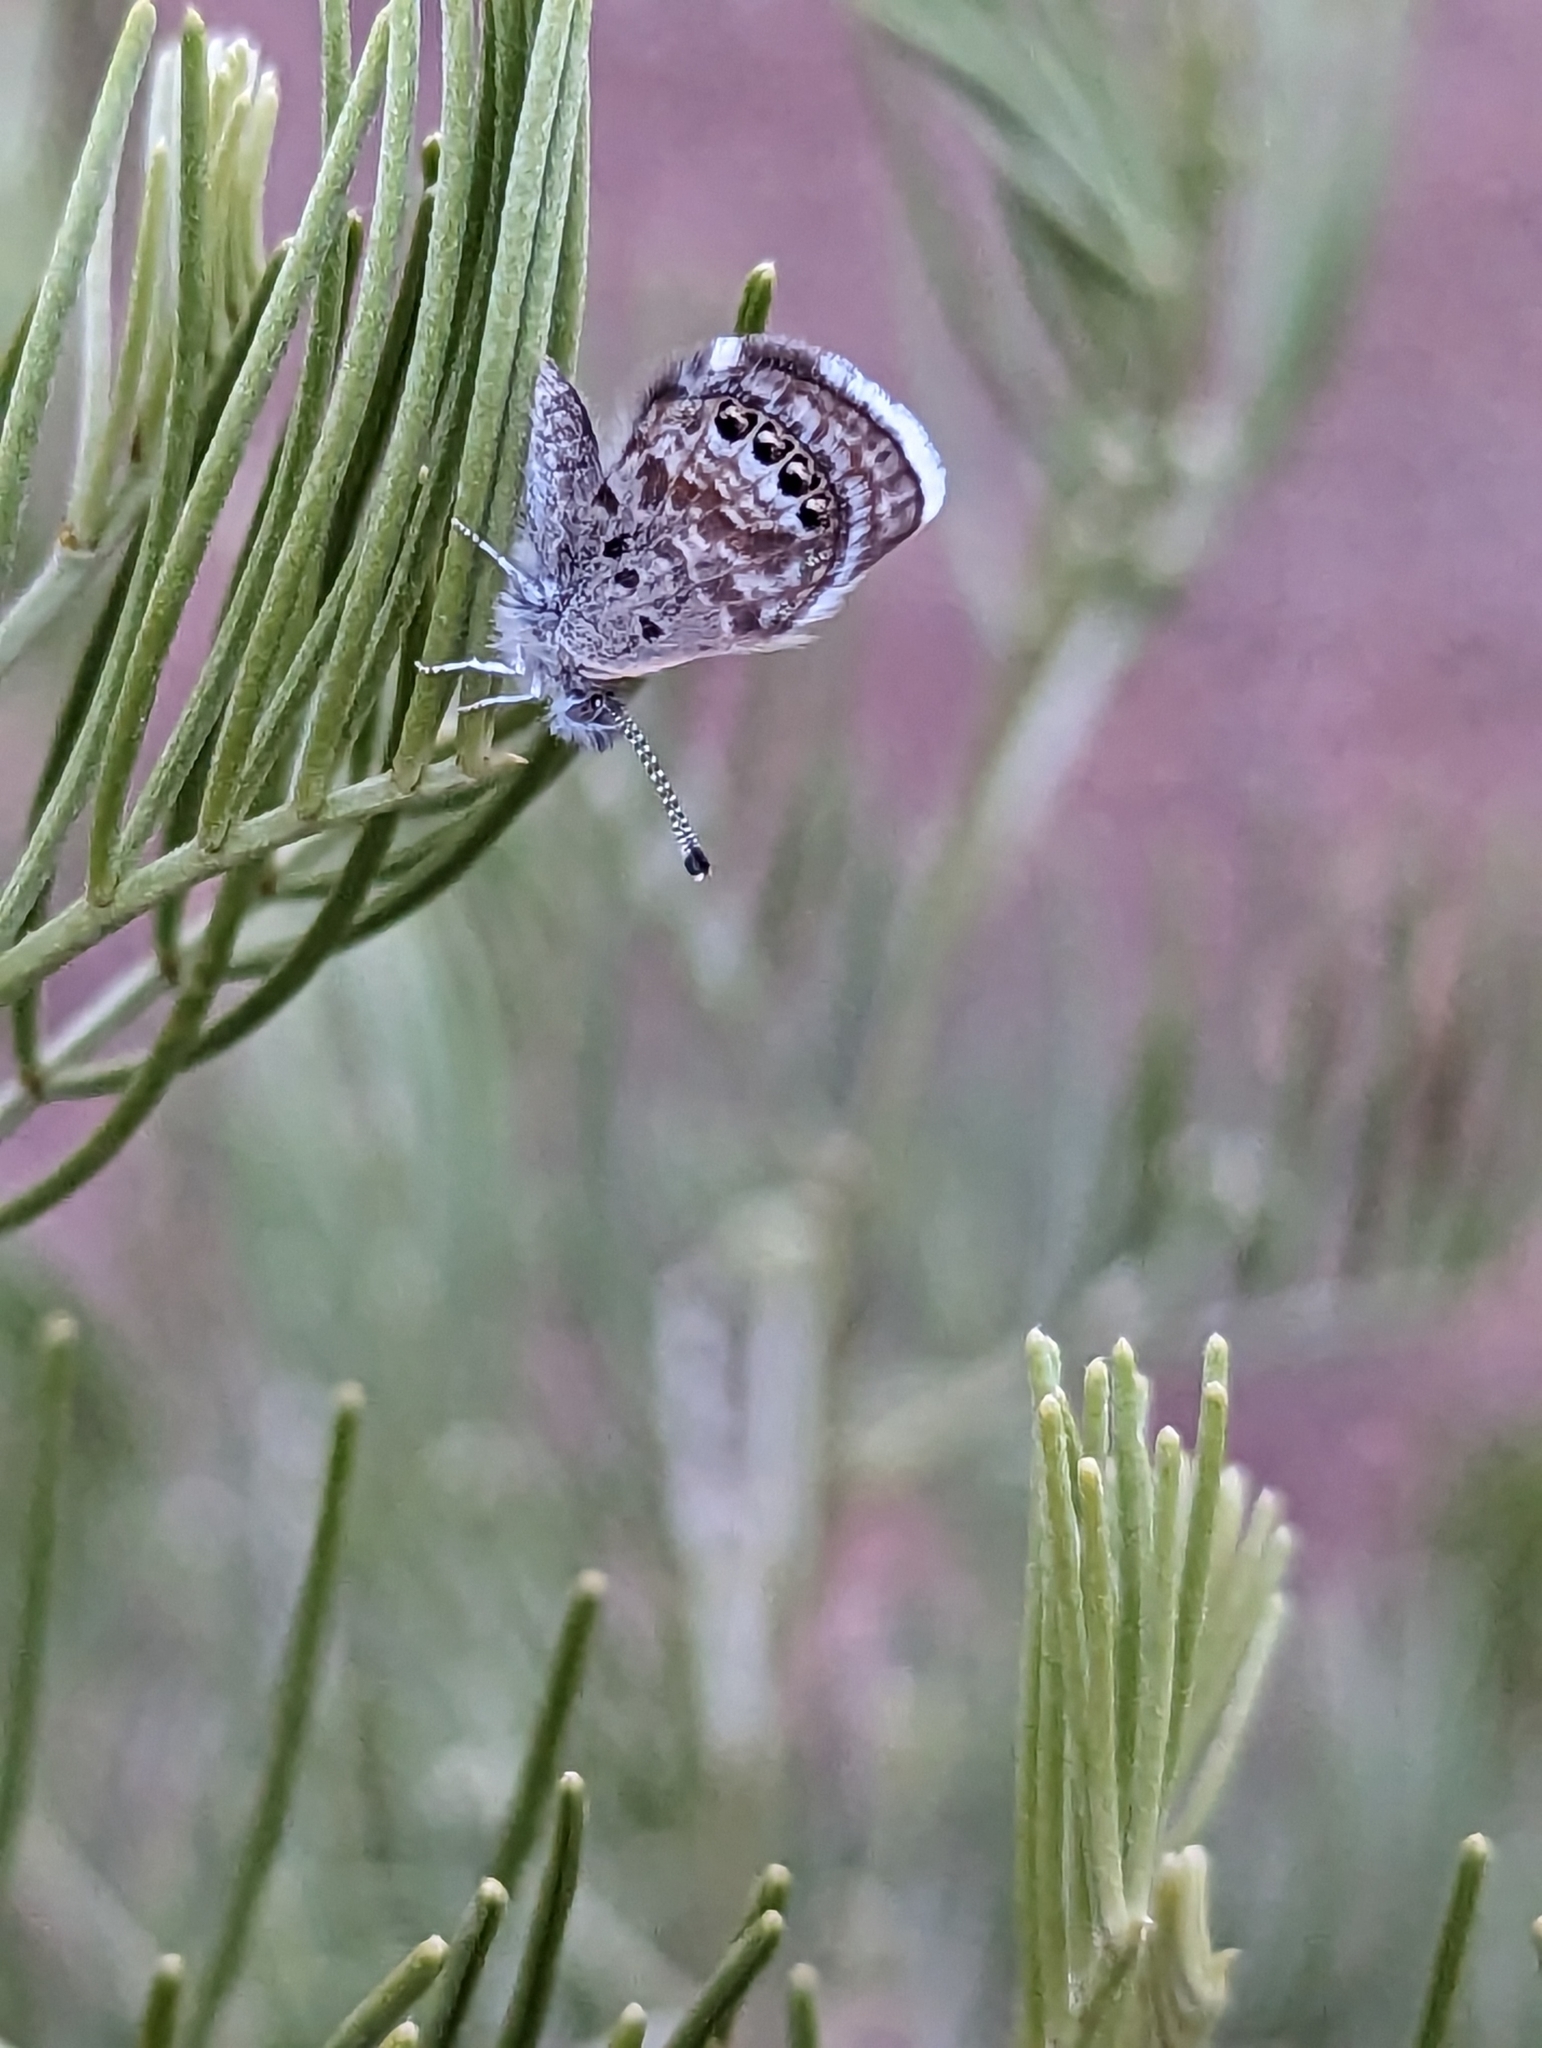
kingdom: Animalia
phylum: Arthropoda
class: Insecta
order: Lepidoptera
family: Lycaenidae
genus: Brephidium
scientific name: Brephidium exilis
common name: Pygmy blue
